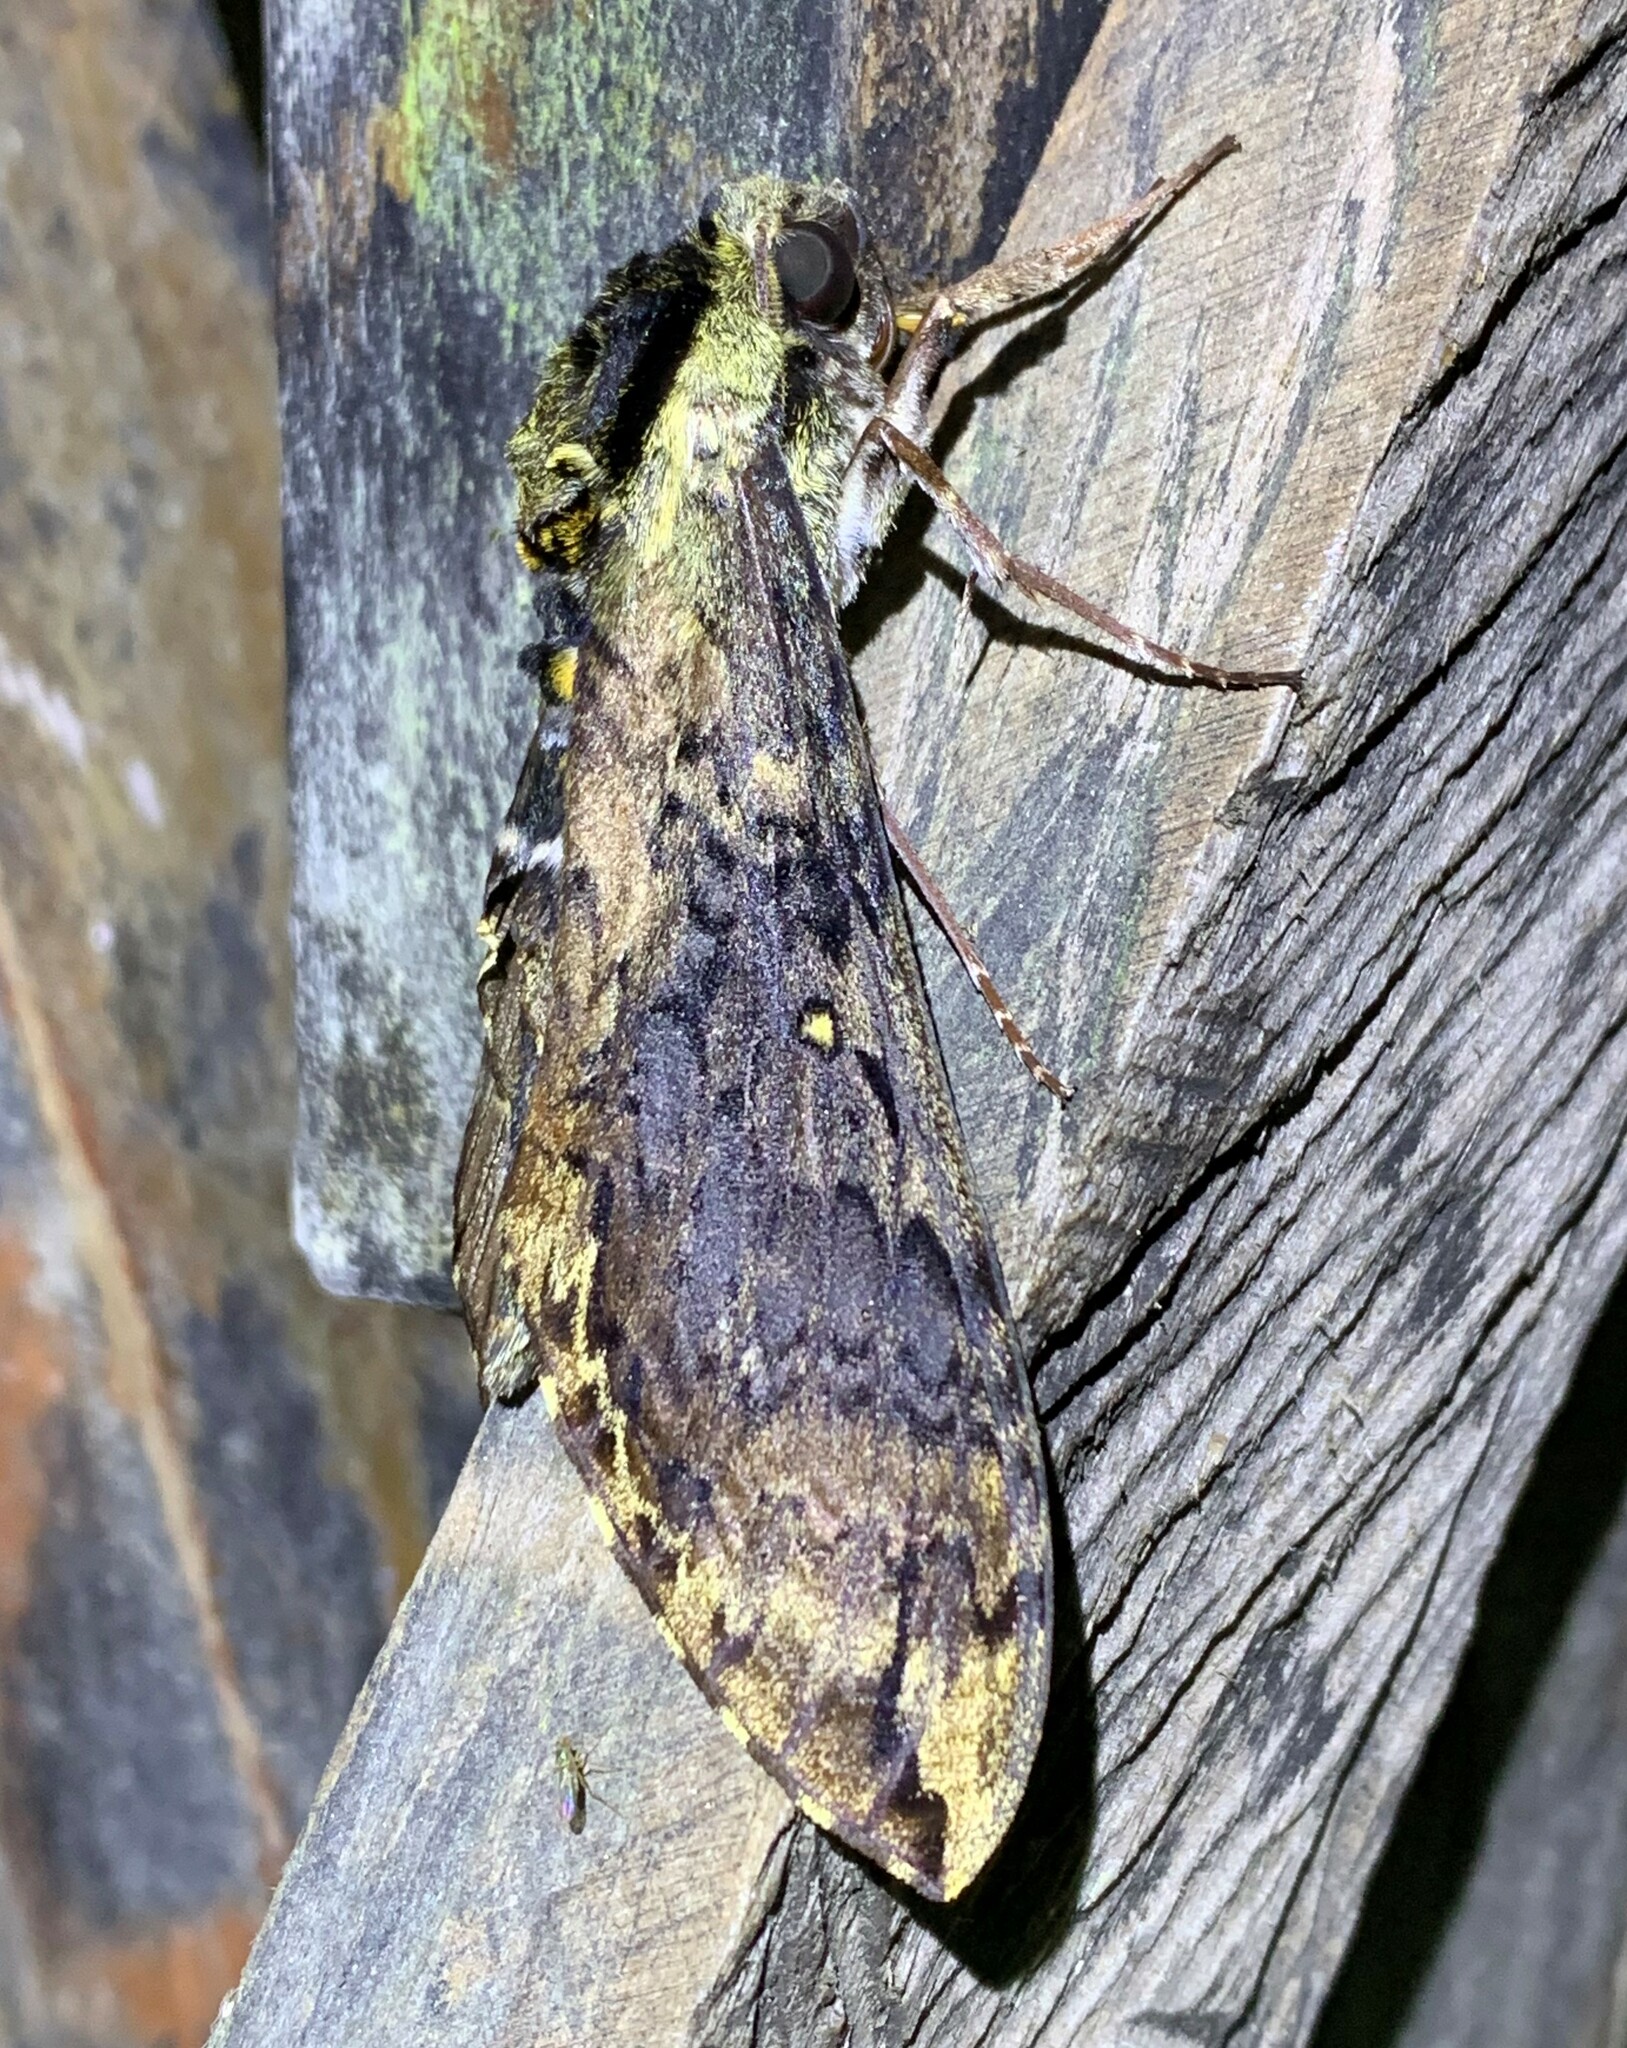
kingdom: Animalia
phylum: Arthropoda
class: Insecta
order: Lepidoptera
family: Sphingidae
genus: Manduca
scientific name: Manduca pellenia
